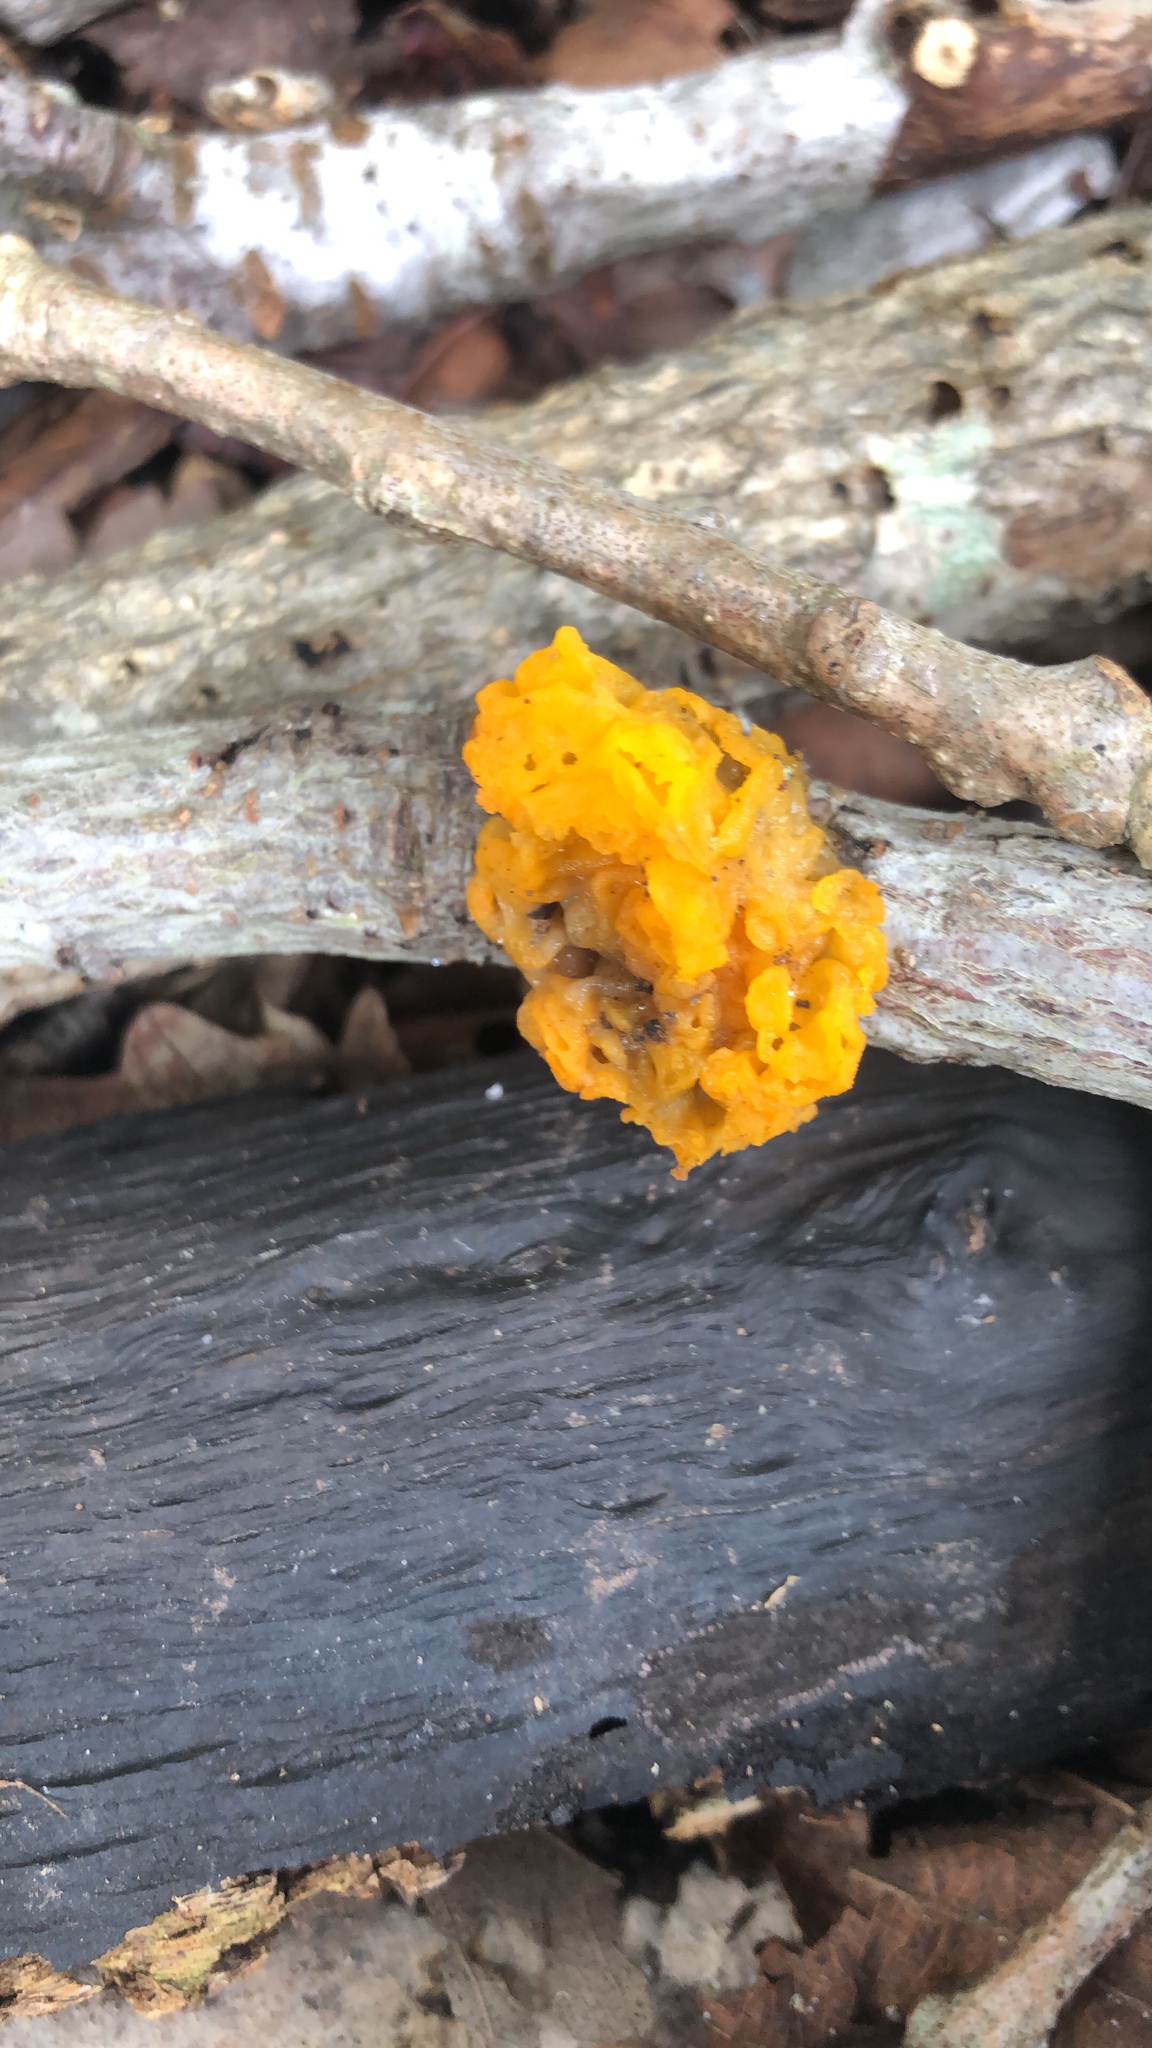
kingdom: Fungi
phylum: Basidiomycota
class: Tremellomycetes
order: Tremellales
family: Tremellaceae
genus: Tremella
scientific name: Tremella mesenterica
